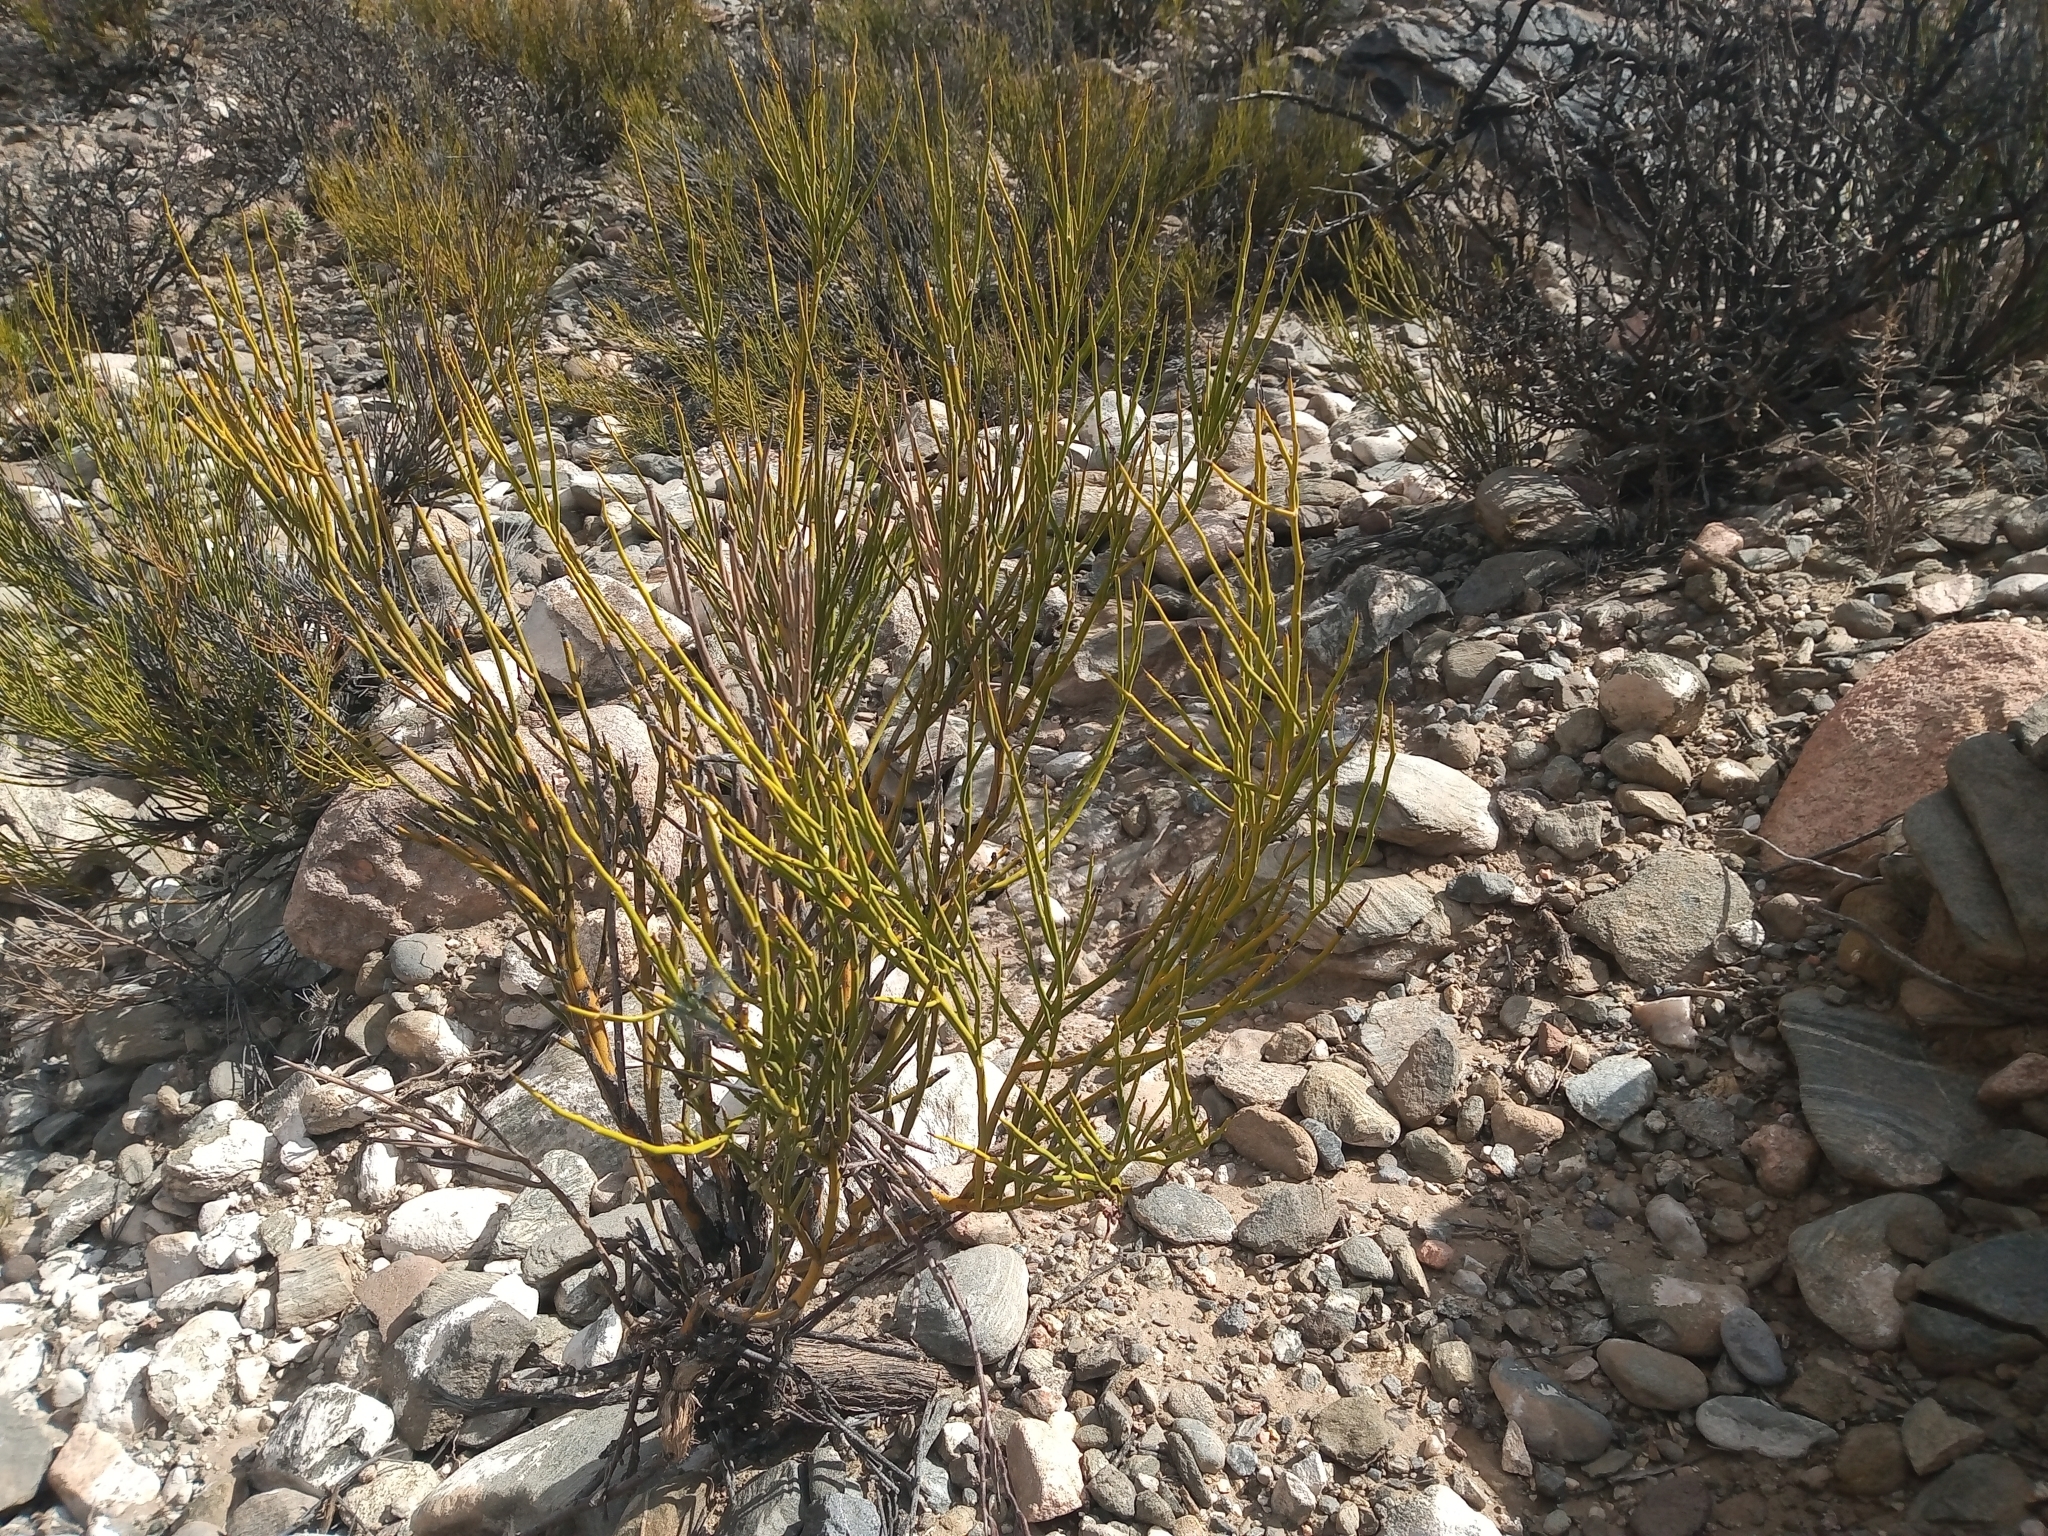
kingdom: Plantae
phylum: Tracheophyta
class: Magnoliopsida
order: Fabales
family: Fabaceae
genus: Senna
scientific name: Senna crassiramea
